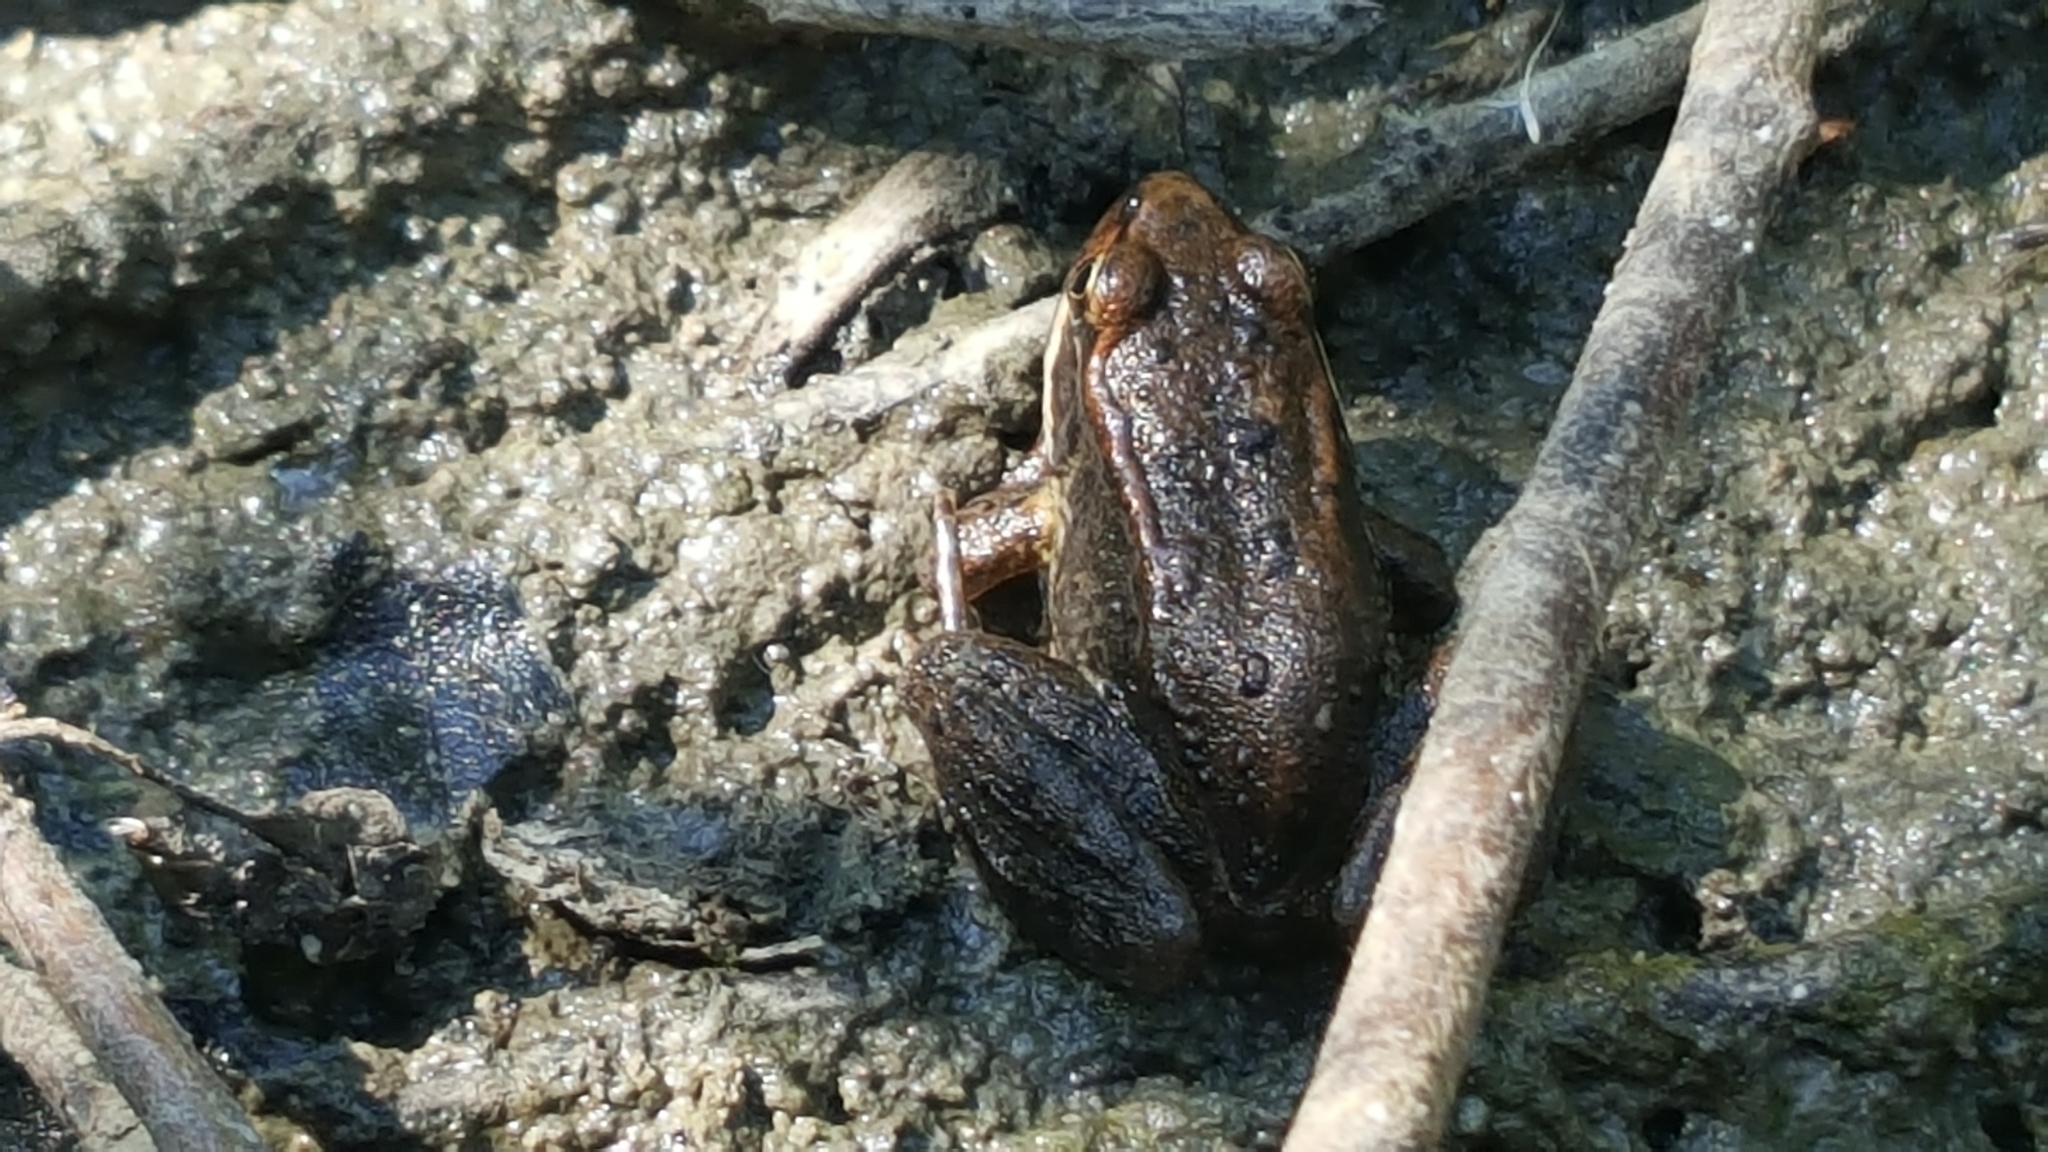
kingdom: Animalia
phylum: Chordata
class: Amphibia
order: Anura
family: Ranidae
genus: Rana
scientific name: Rana aurora
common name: Red-legged frog
